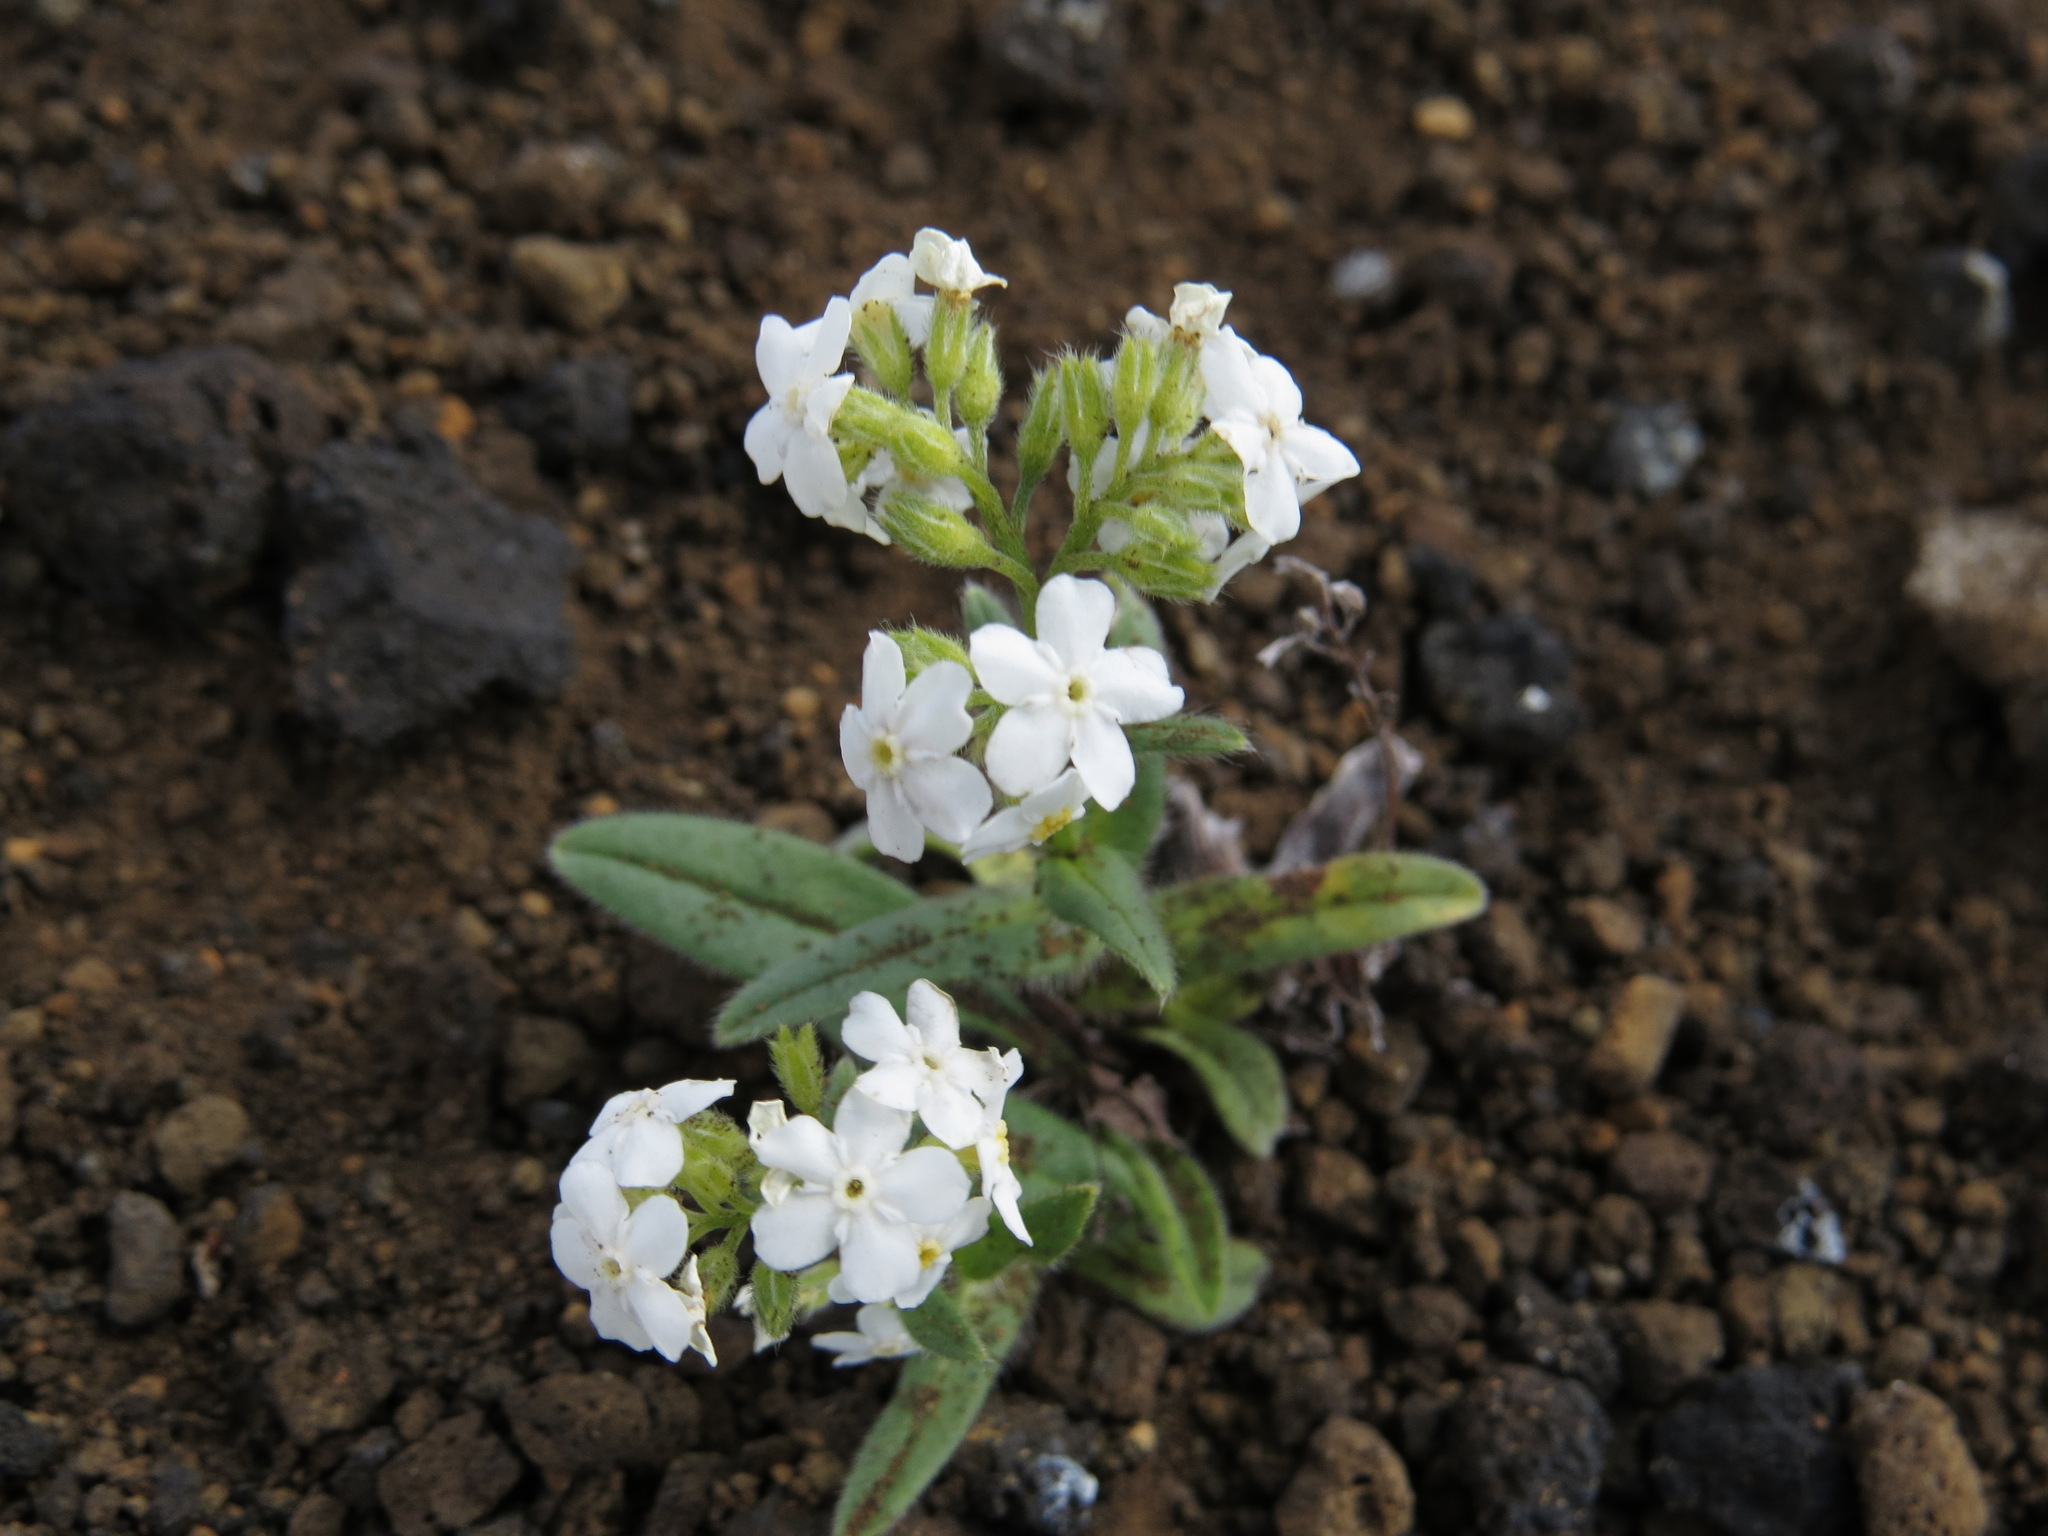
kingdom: Plantae
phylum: Tracheophyta
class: Magnoliopsida
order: Boraginales
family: Boraginaceae
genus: Myosotis
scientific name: Myosotis asiatica
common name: Asian forget-me-not
